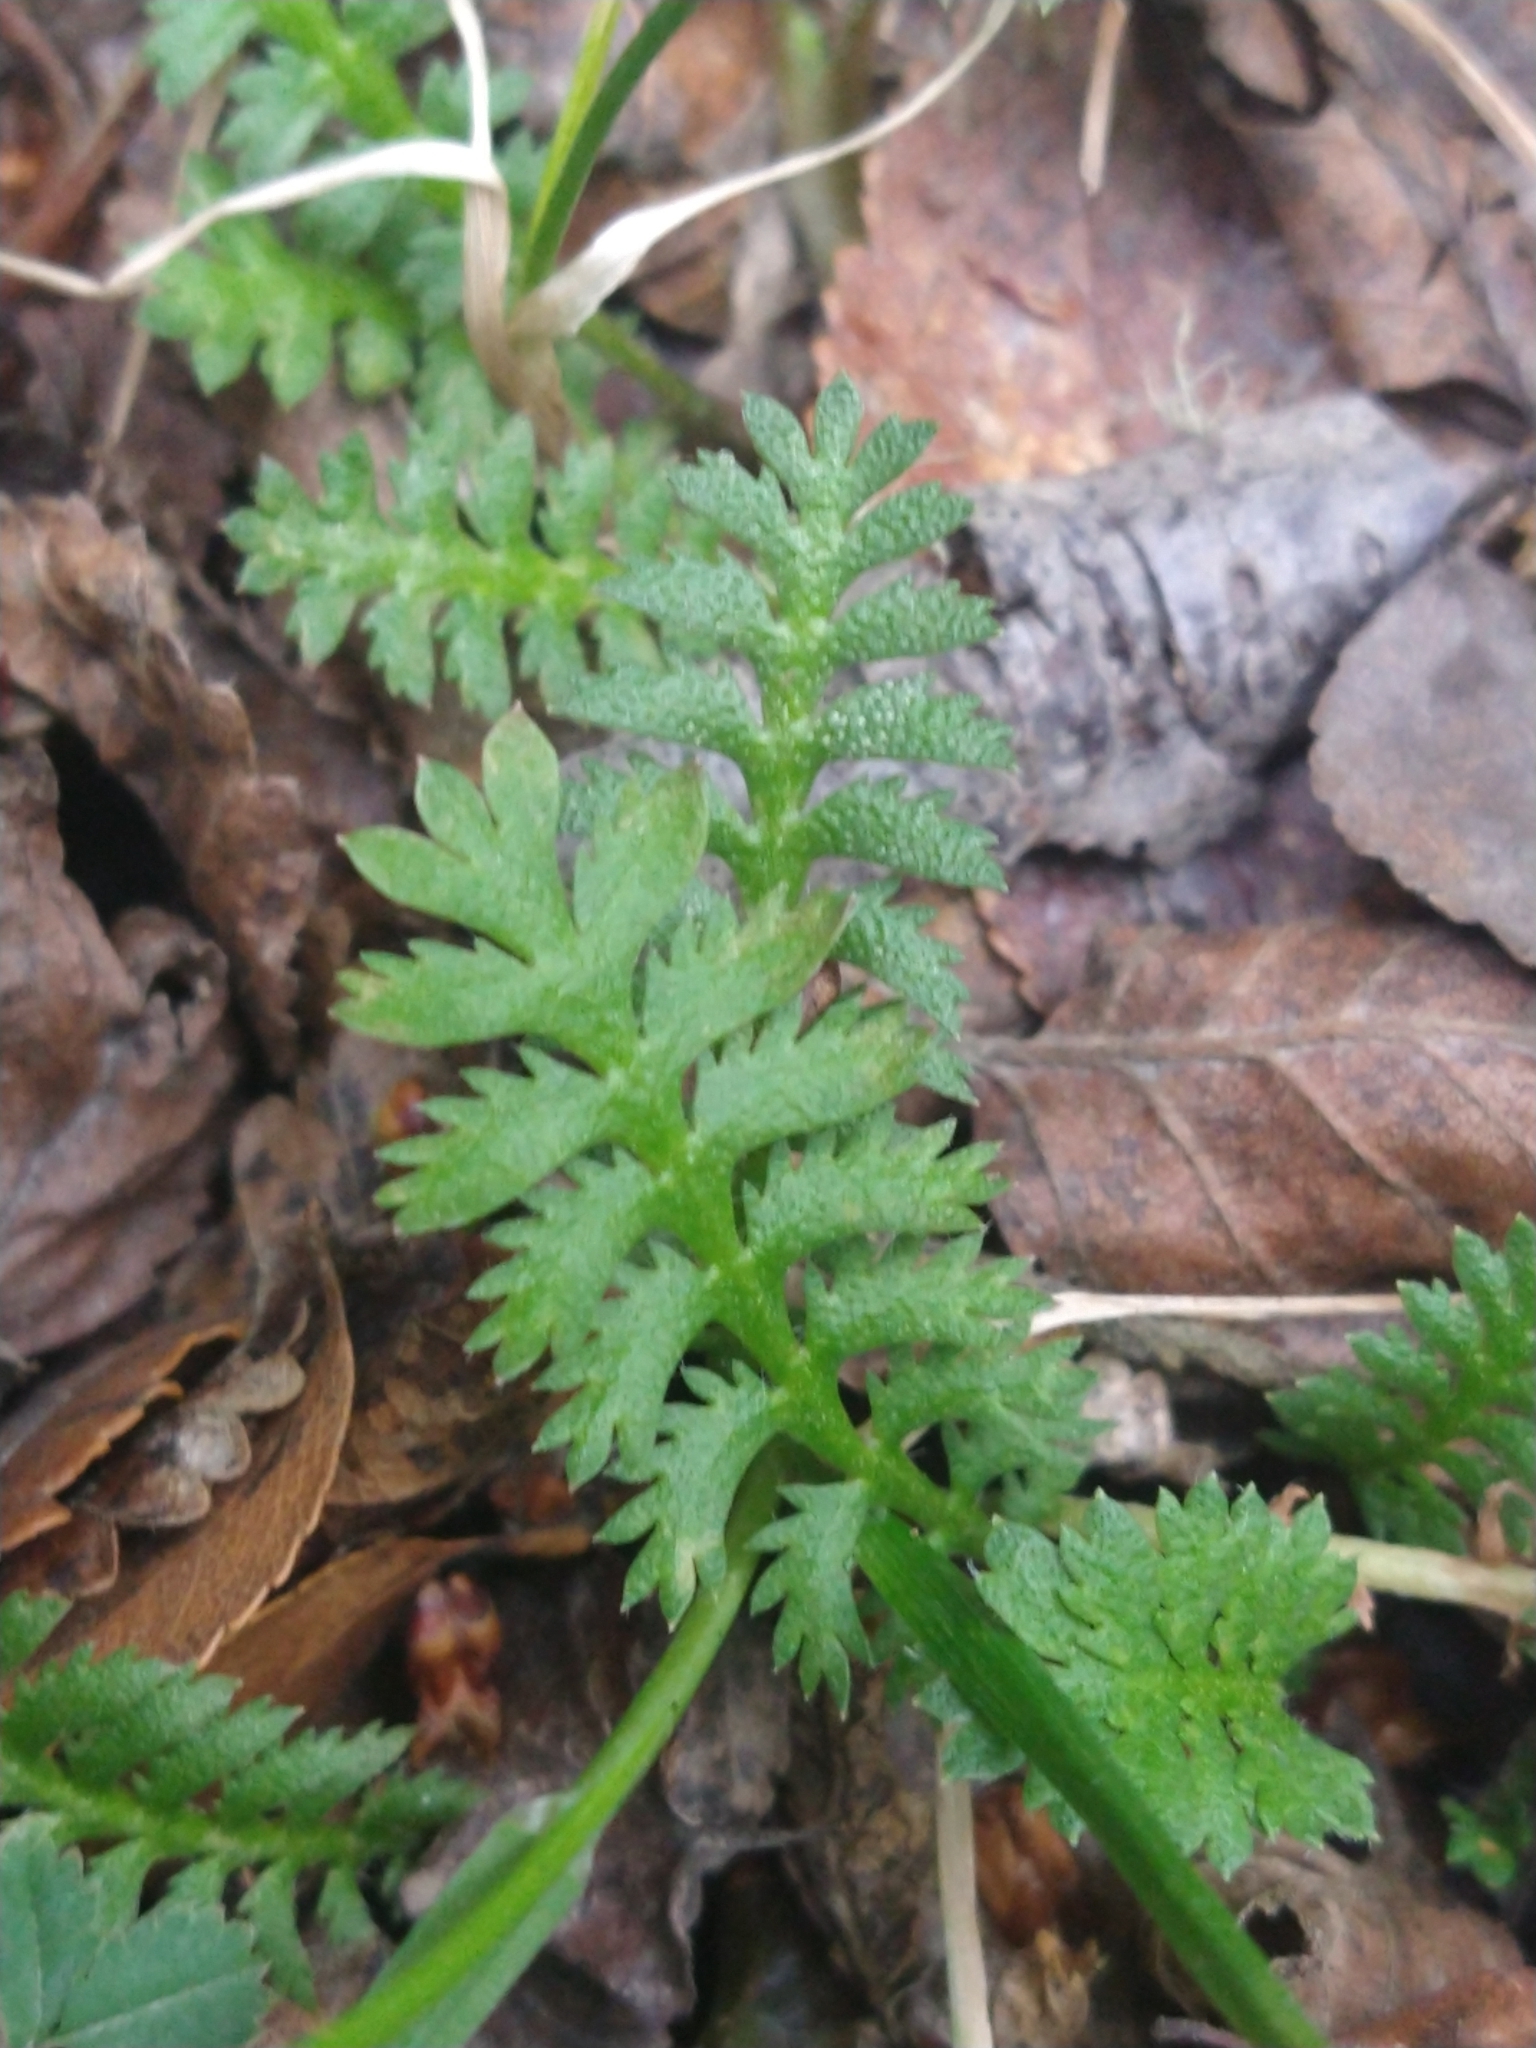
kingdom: Plantae
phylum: Tracheophyta
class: Magnoliopsida
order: Asterales
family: Asteraceae
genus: Leptinella
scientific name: Leptinella scariosa
